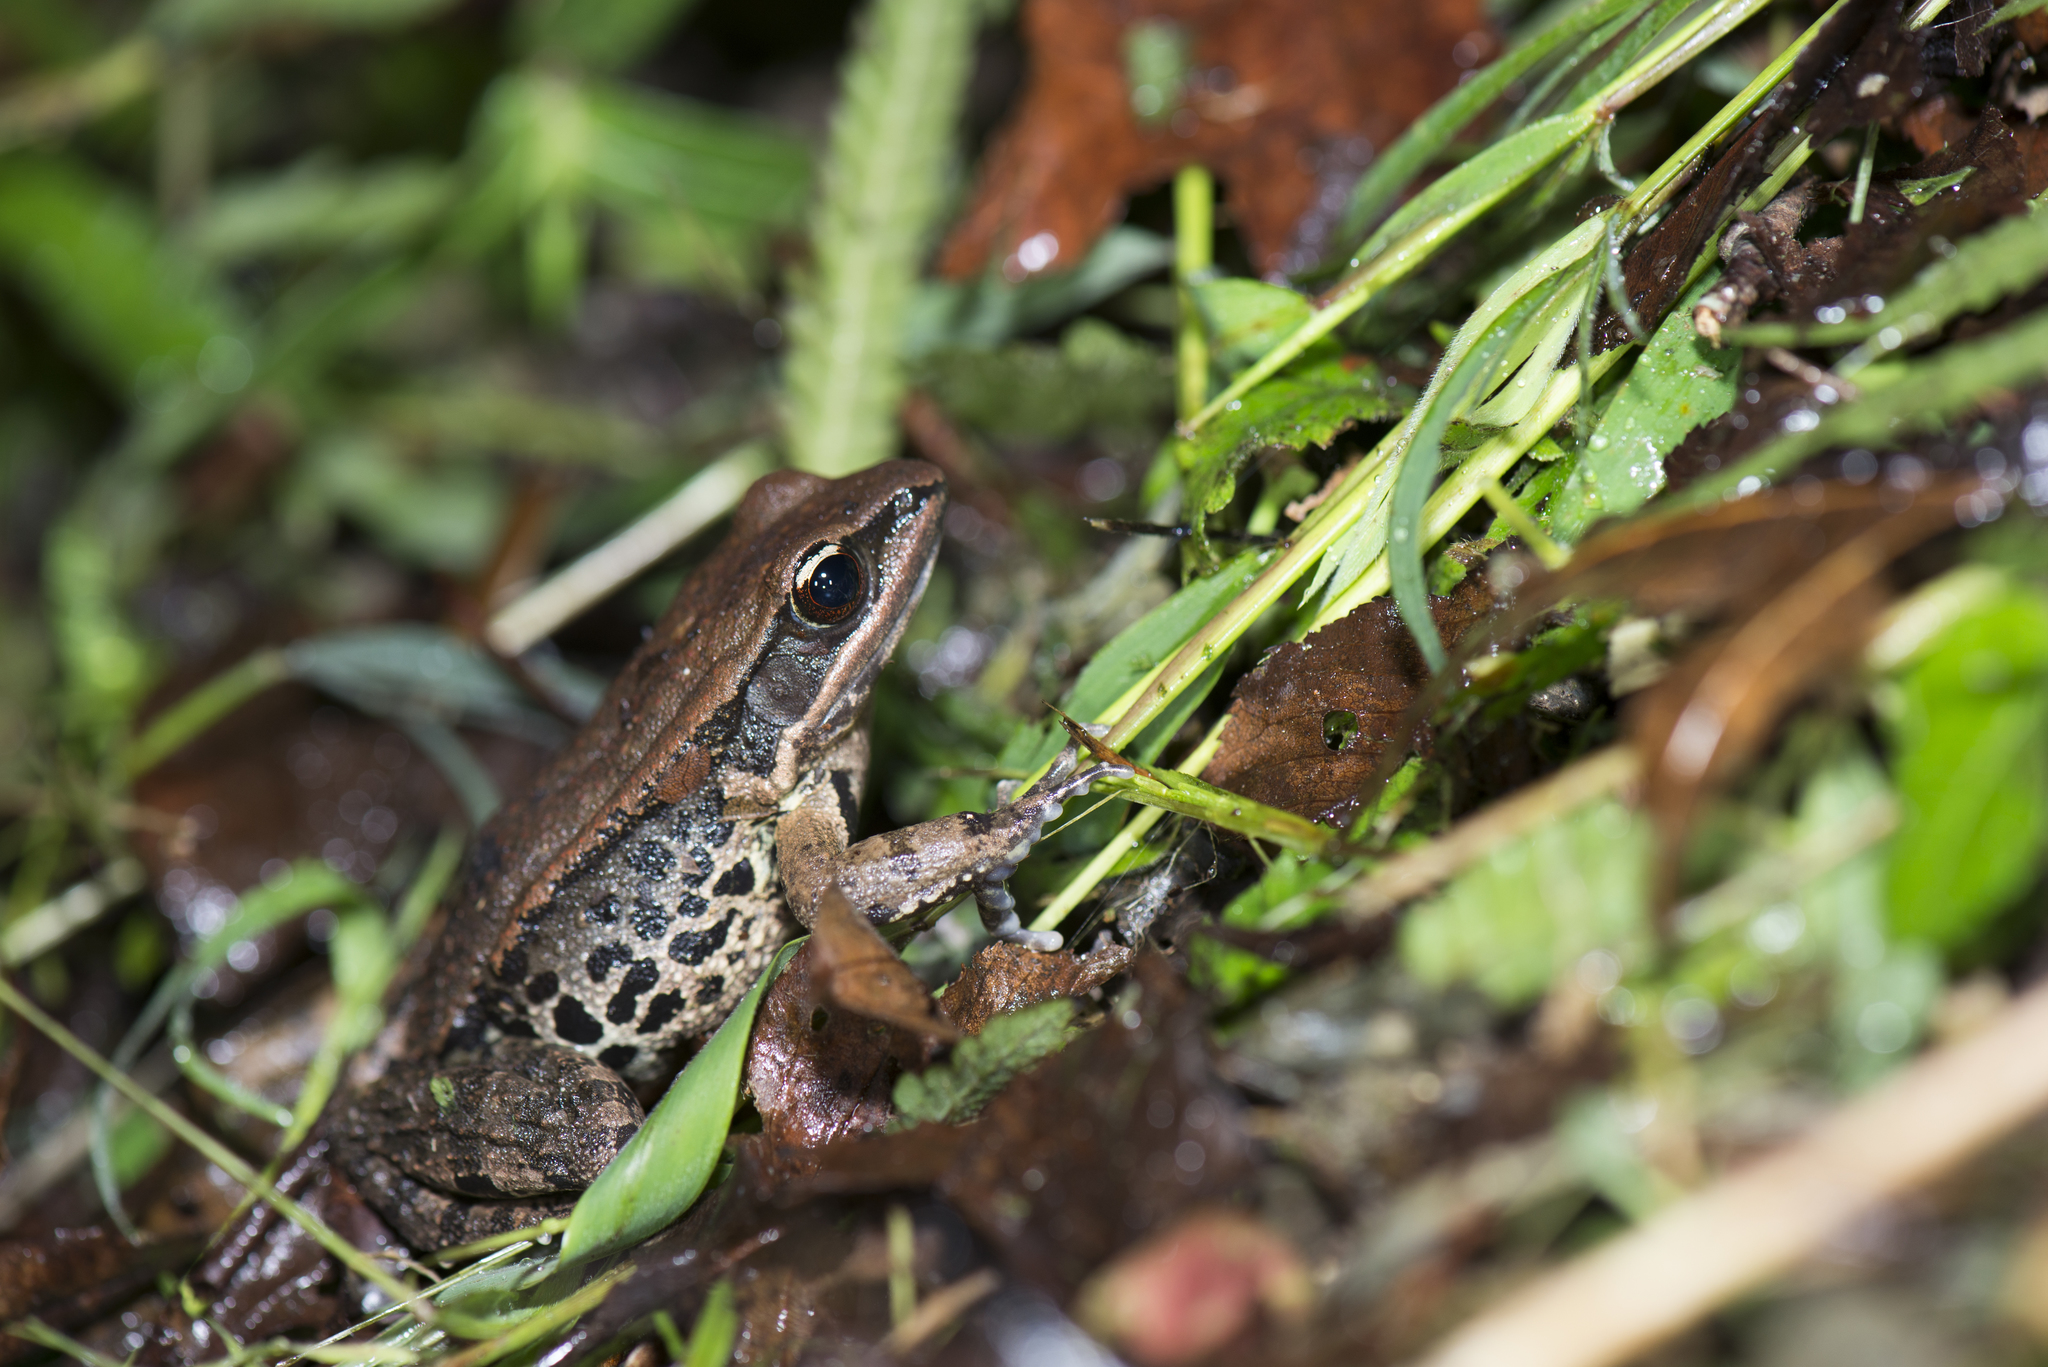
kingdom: Animalia
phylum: Chordata
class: Amphibia
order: Anura
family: Ranidae
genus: Hylarana
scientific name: Hylarana latouchii
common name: Broad-folded frog
